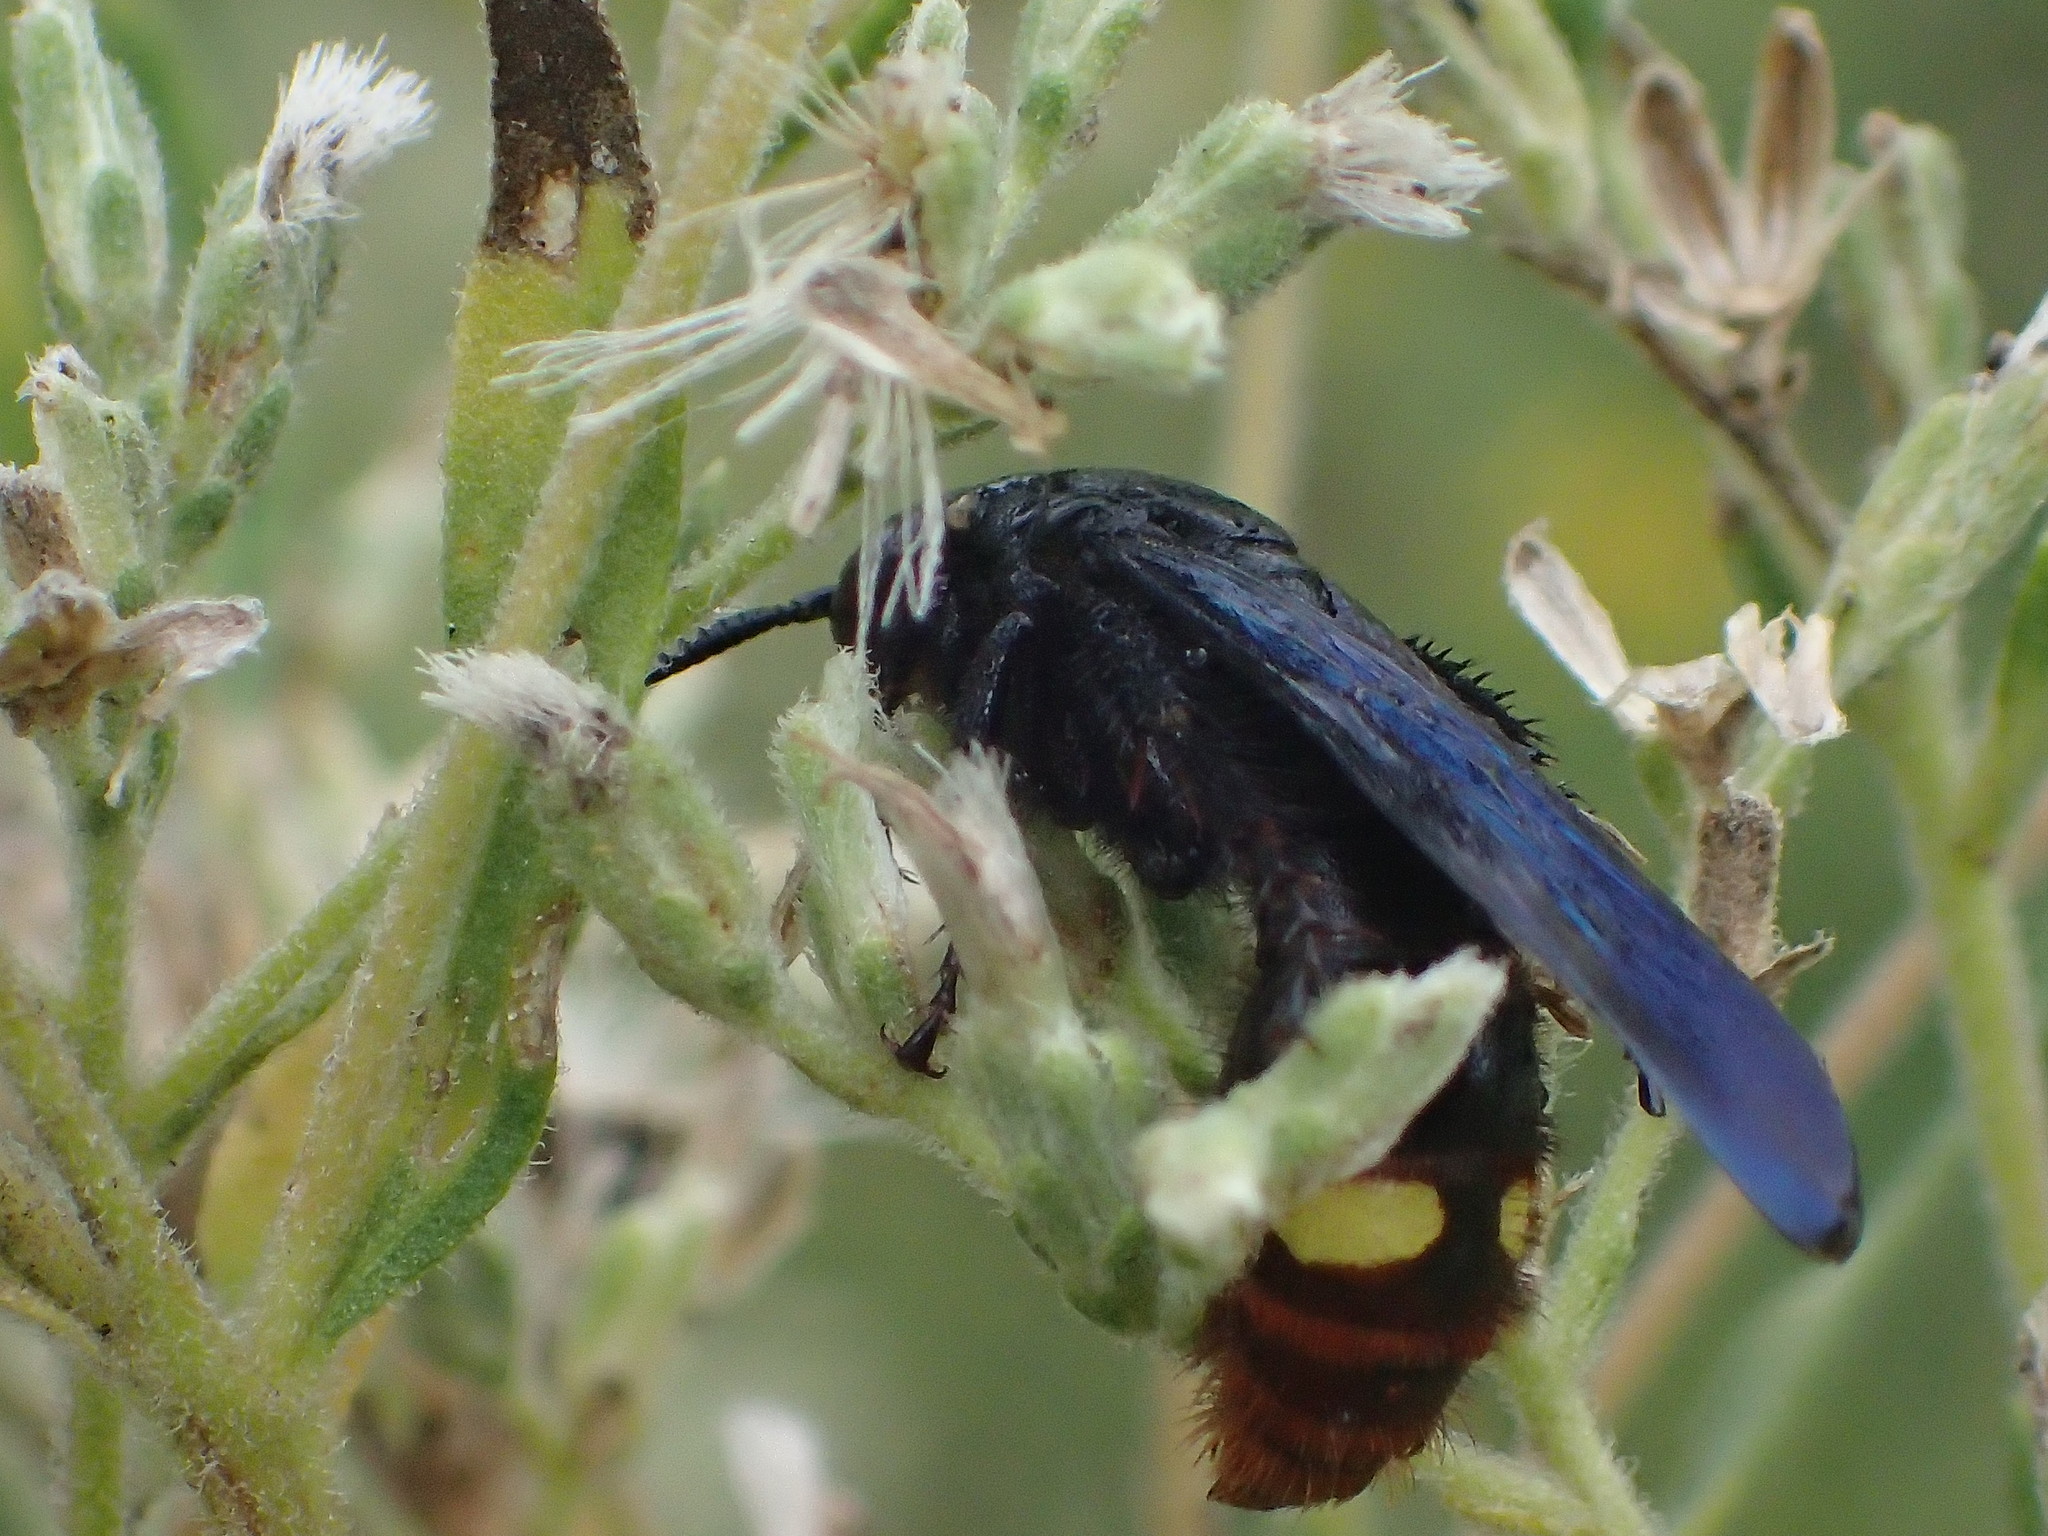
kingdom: Animalia
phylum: Arthropoda
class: Insecta
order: Hymenoptera
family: Scoliidae
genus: Scolia
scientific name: Scolia dubia
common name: Blue-winged scoliid wasp
